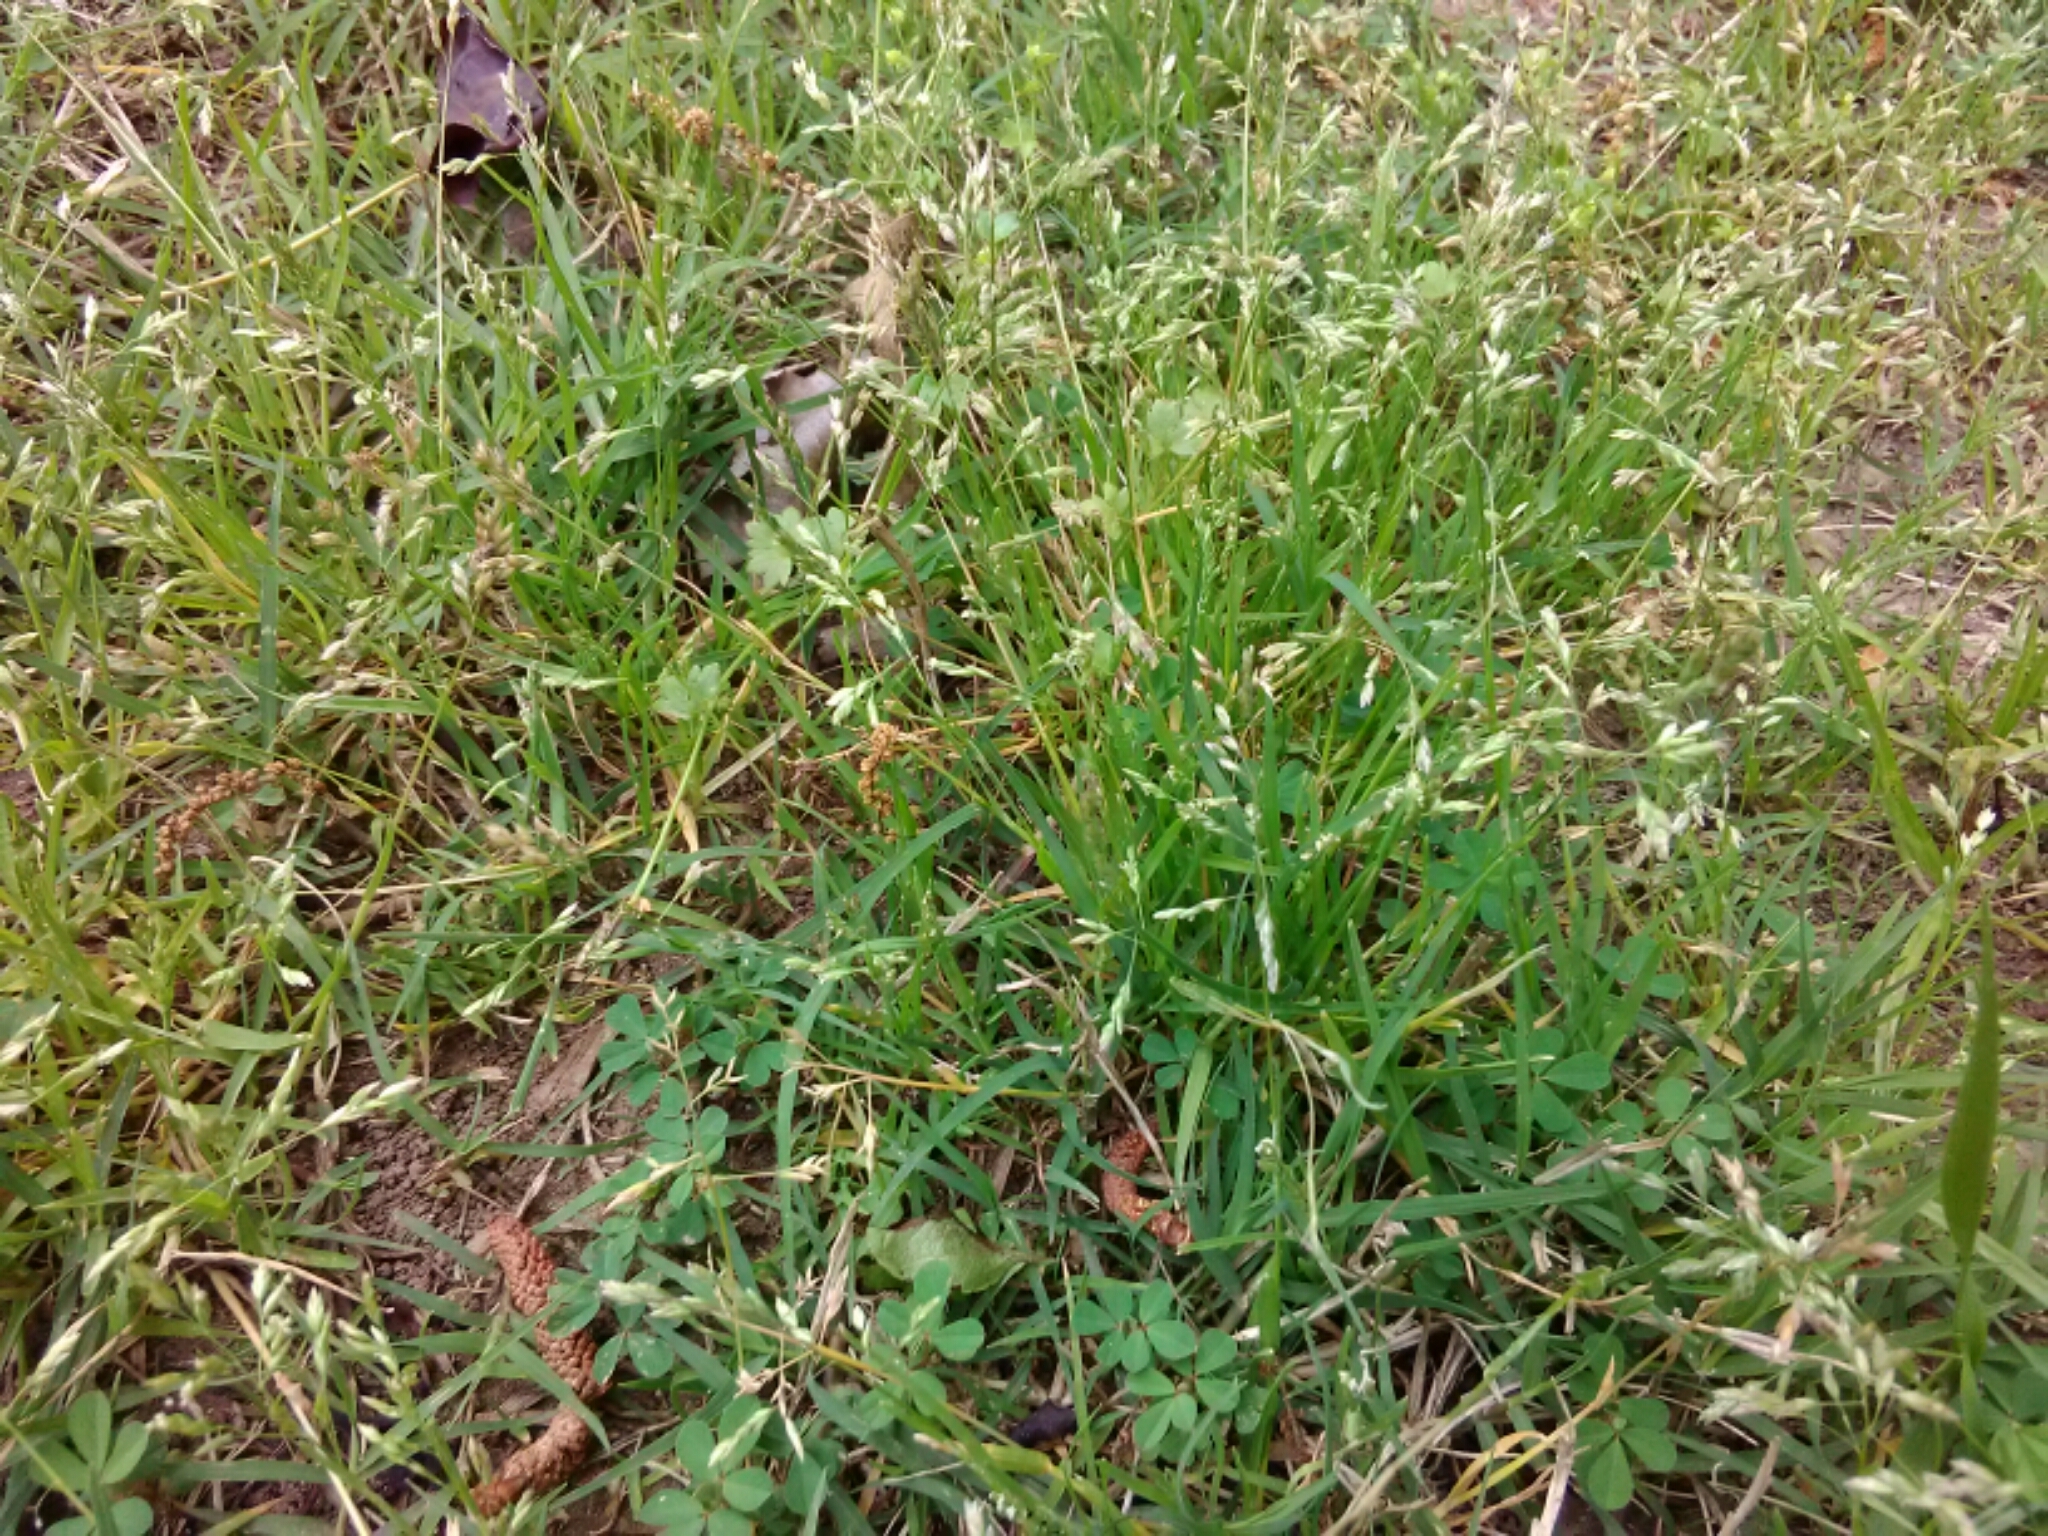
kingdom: Plantae
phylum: Tracheophyta
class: Liliopsida
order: Poales
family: Poaceae
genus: Poa
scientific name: Poa annua
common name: Annual bluegrass
